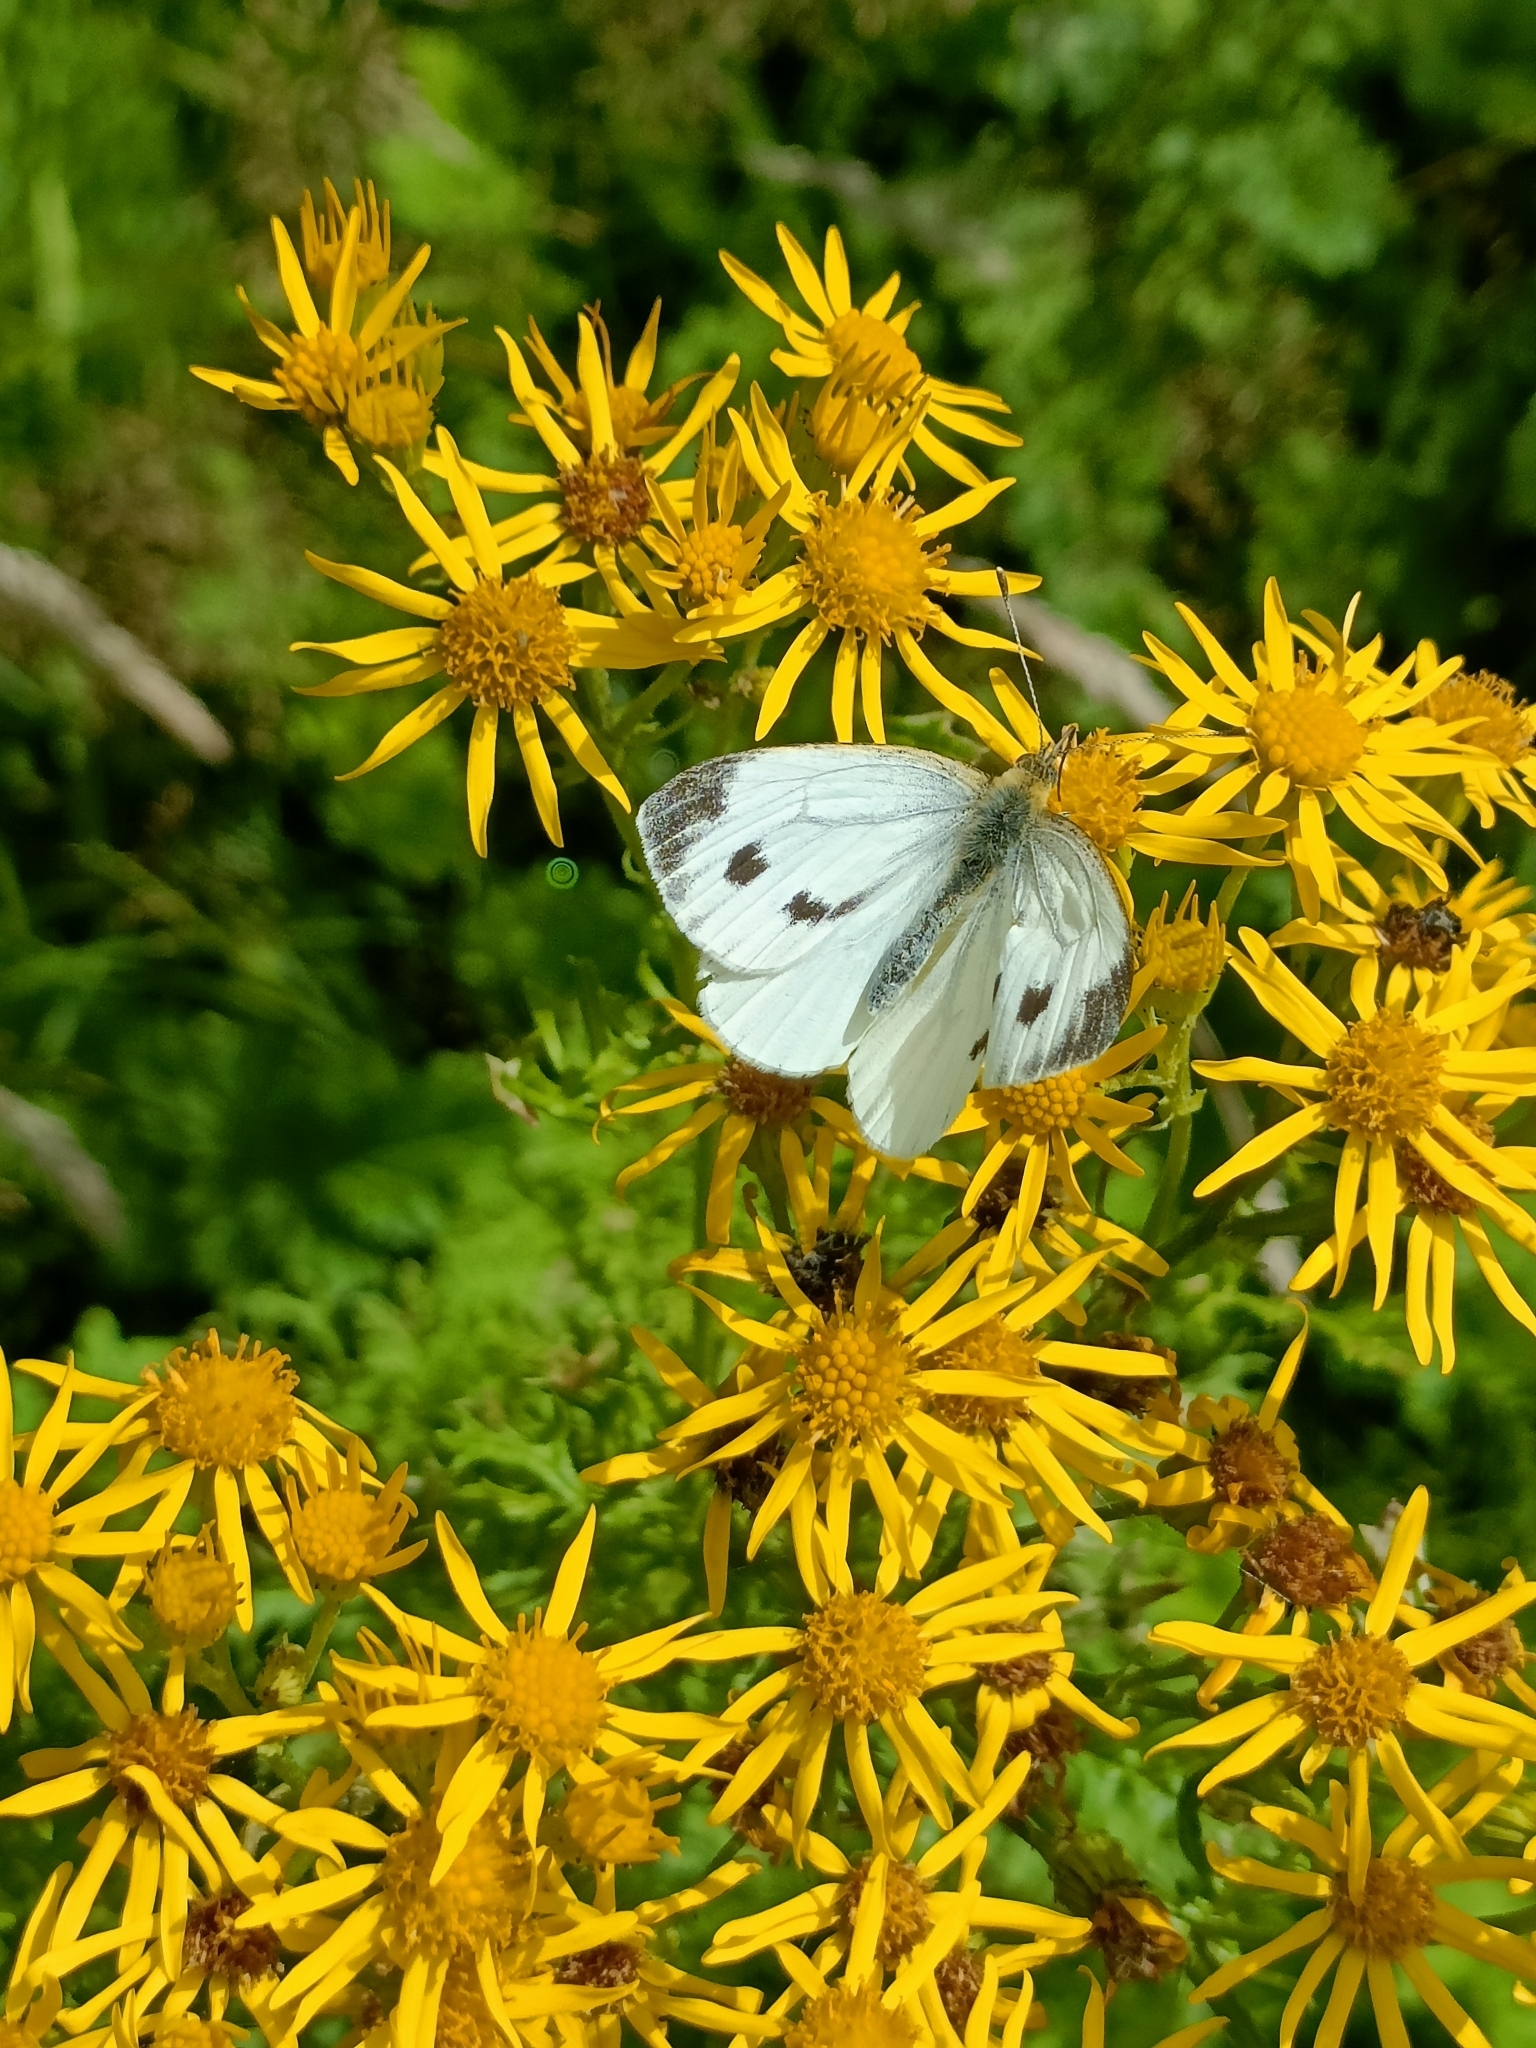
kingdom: Animalia
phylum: Arthropoda
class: Insecta
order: Lepidoptera
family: Pieridae
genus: Pieris
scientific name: Pieris napi
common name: Green-veined white
